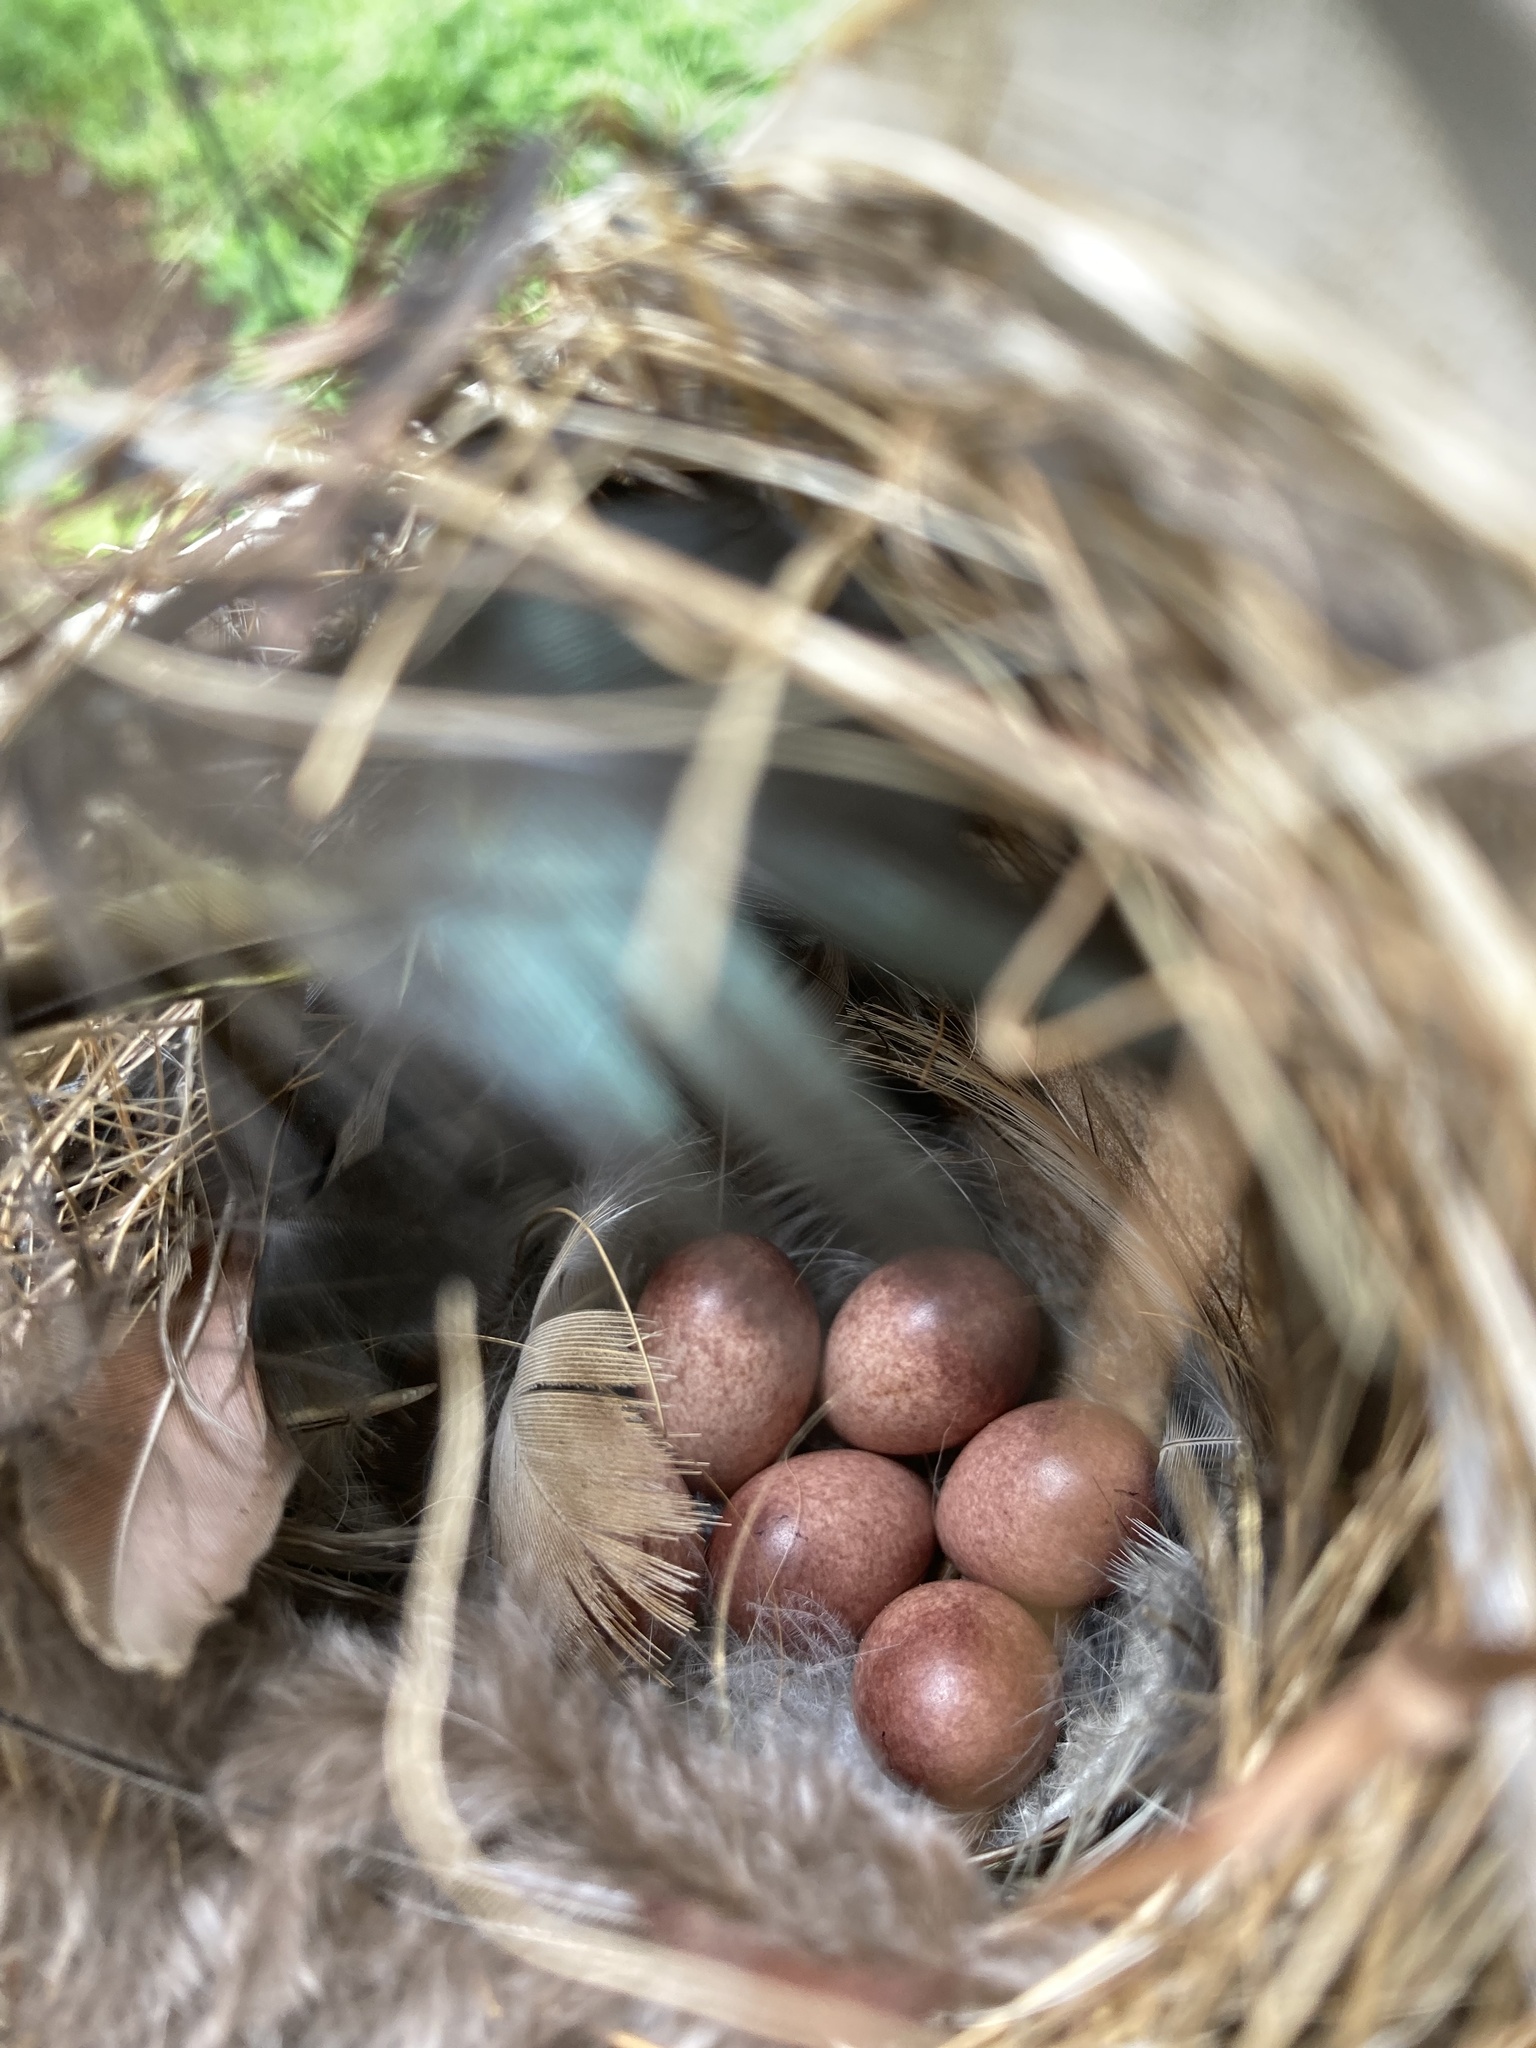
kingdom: Animalia
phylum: Chordata
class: Aves
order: Passeriformes
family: Troglodytidae
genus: Troglodytes
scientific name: Troglodytes aedon
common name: House wren
